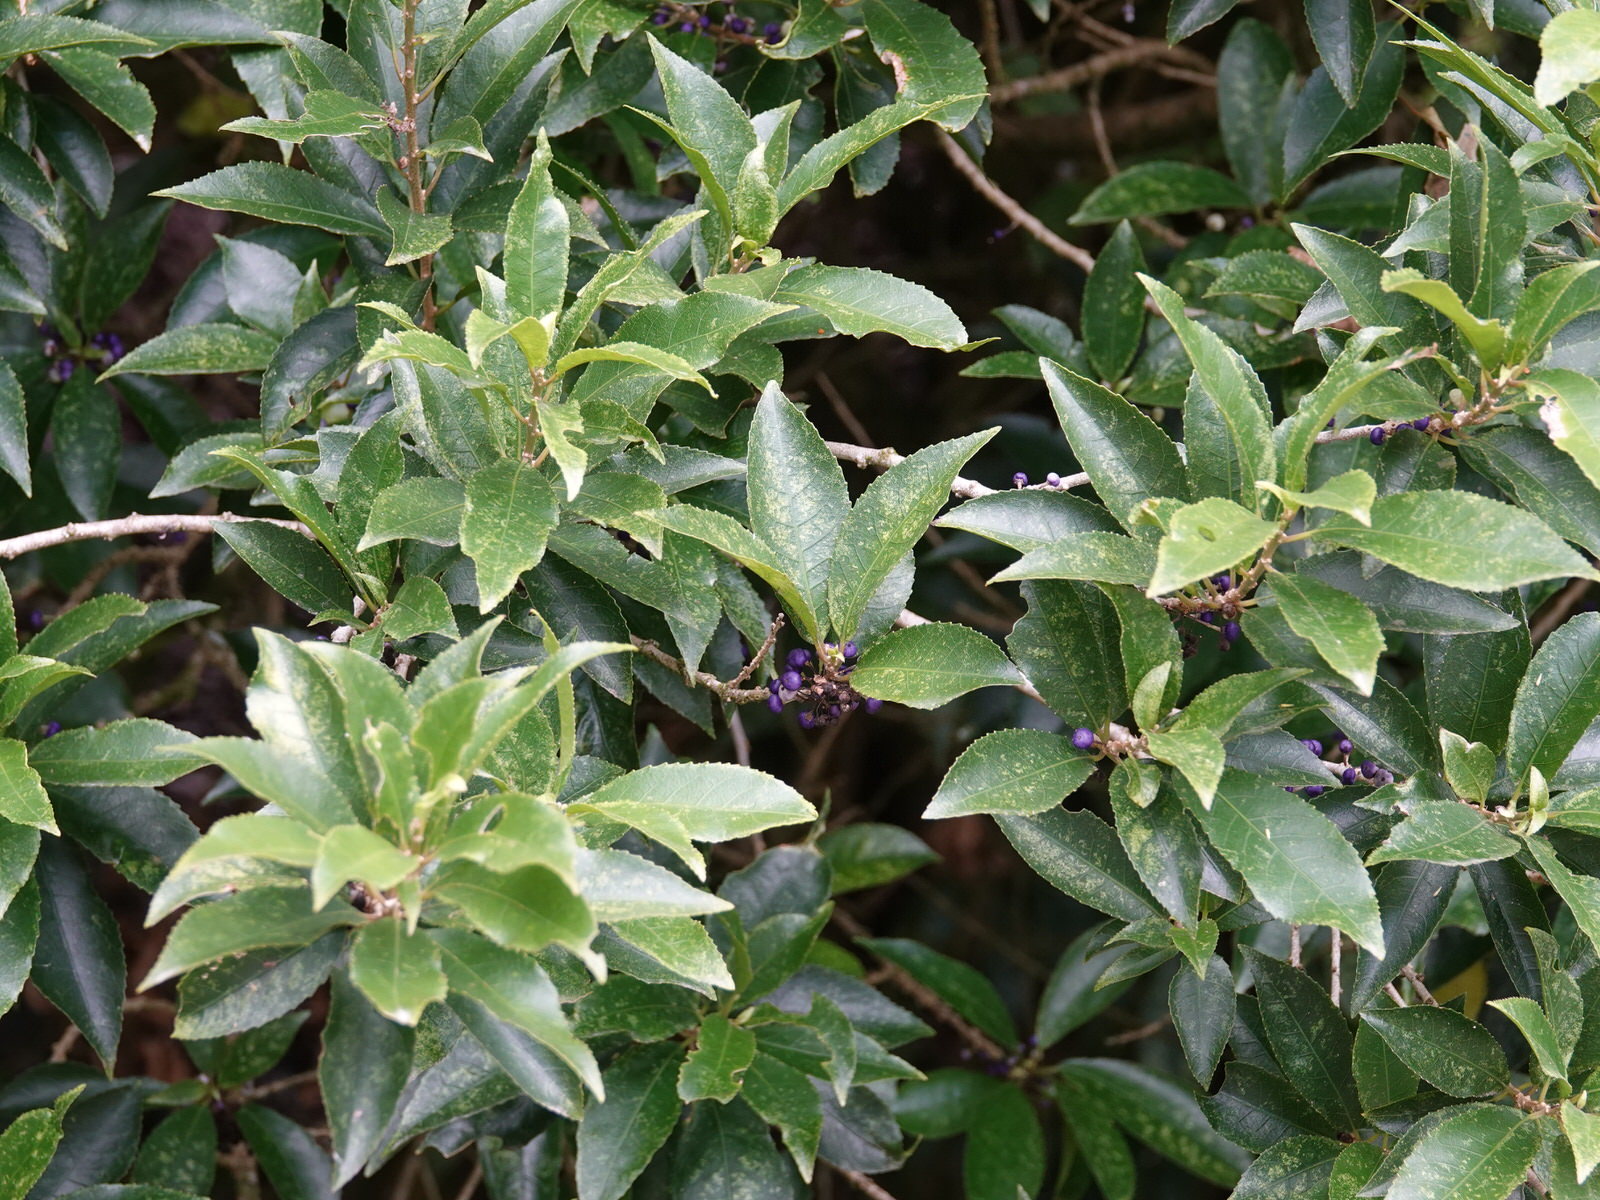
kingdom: Plantae
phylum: Tracheophyta
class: Magnoliopsida
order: Malpighiales
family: Violaceae
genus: Melicytus
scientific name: Melicytus ramiflorus
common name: Mahoe
